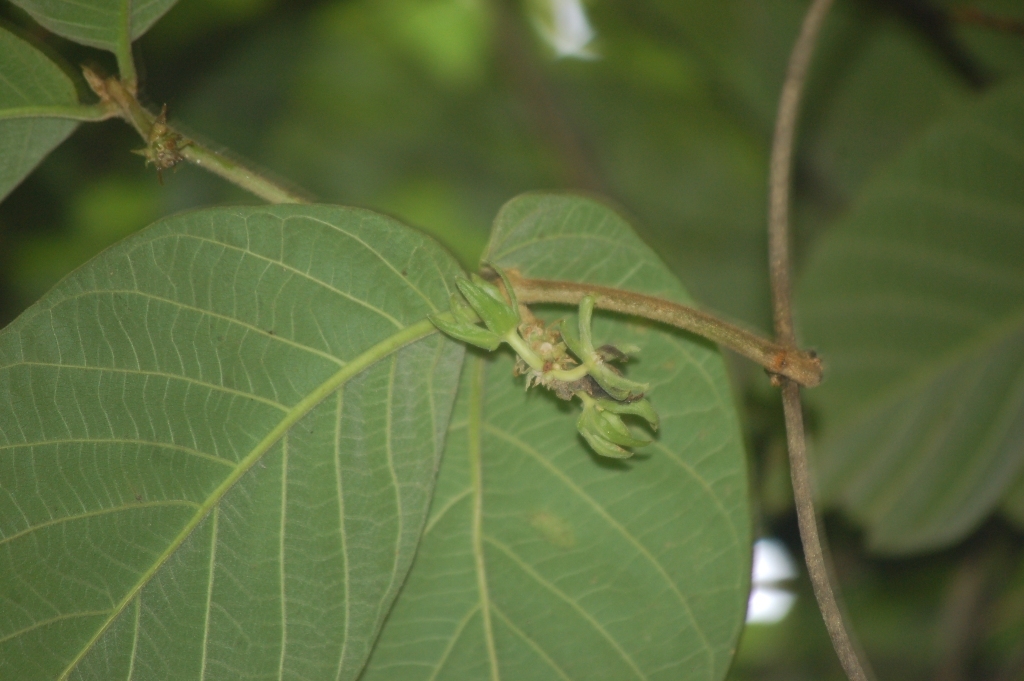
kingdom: Plantae
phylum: Tracheophyta
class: Magnoliopsida
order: Gentianales
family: Apocynaceae
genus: Prestonia
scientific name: Prestonia mexicana
